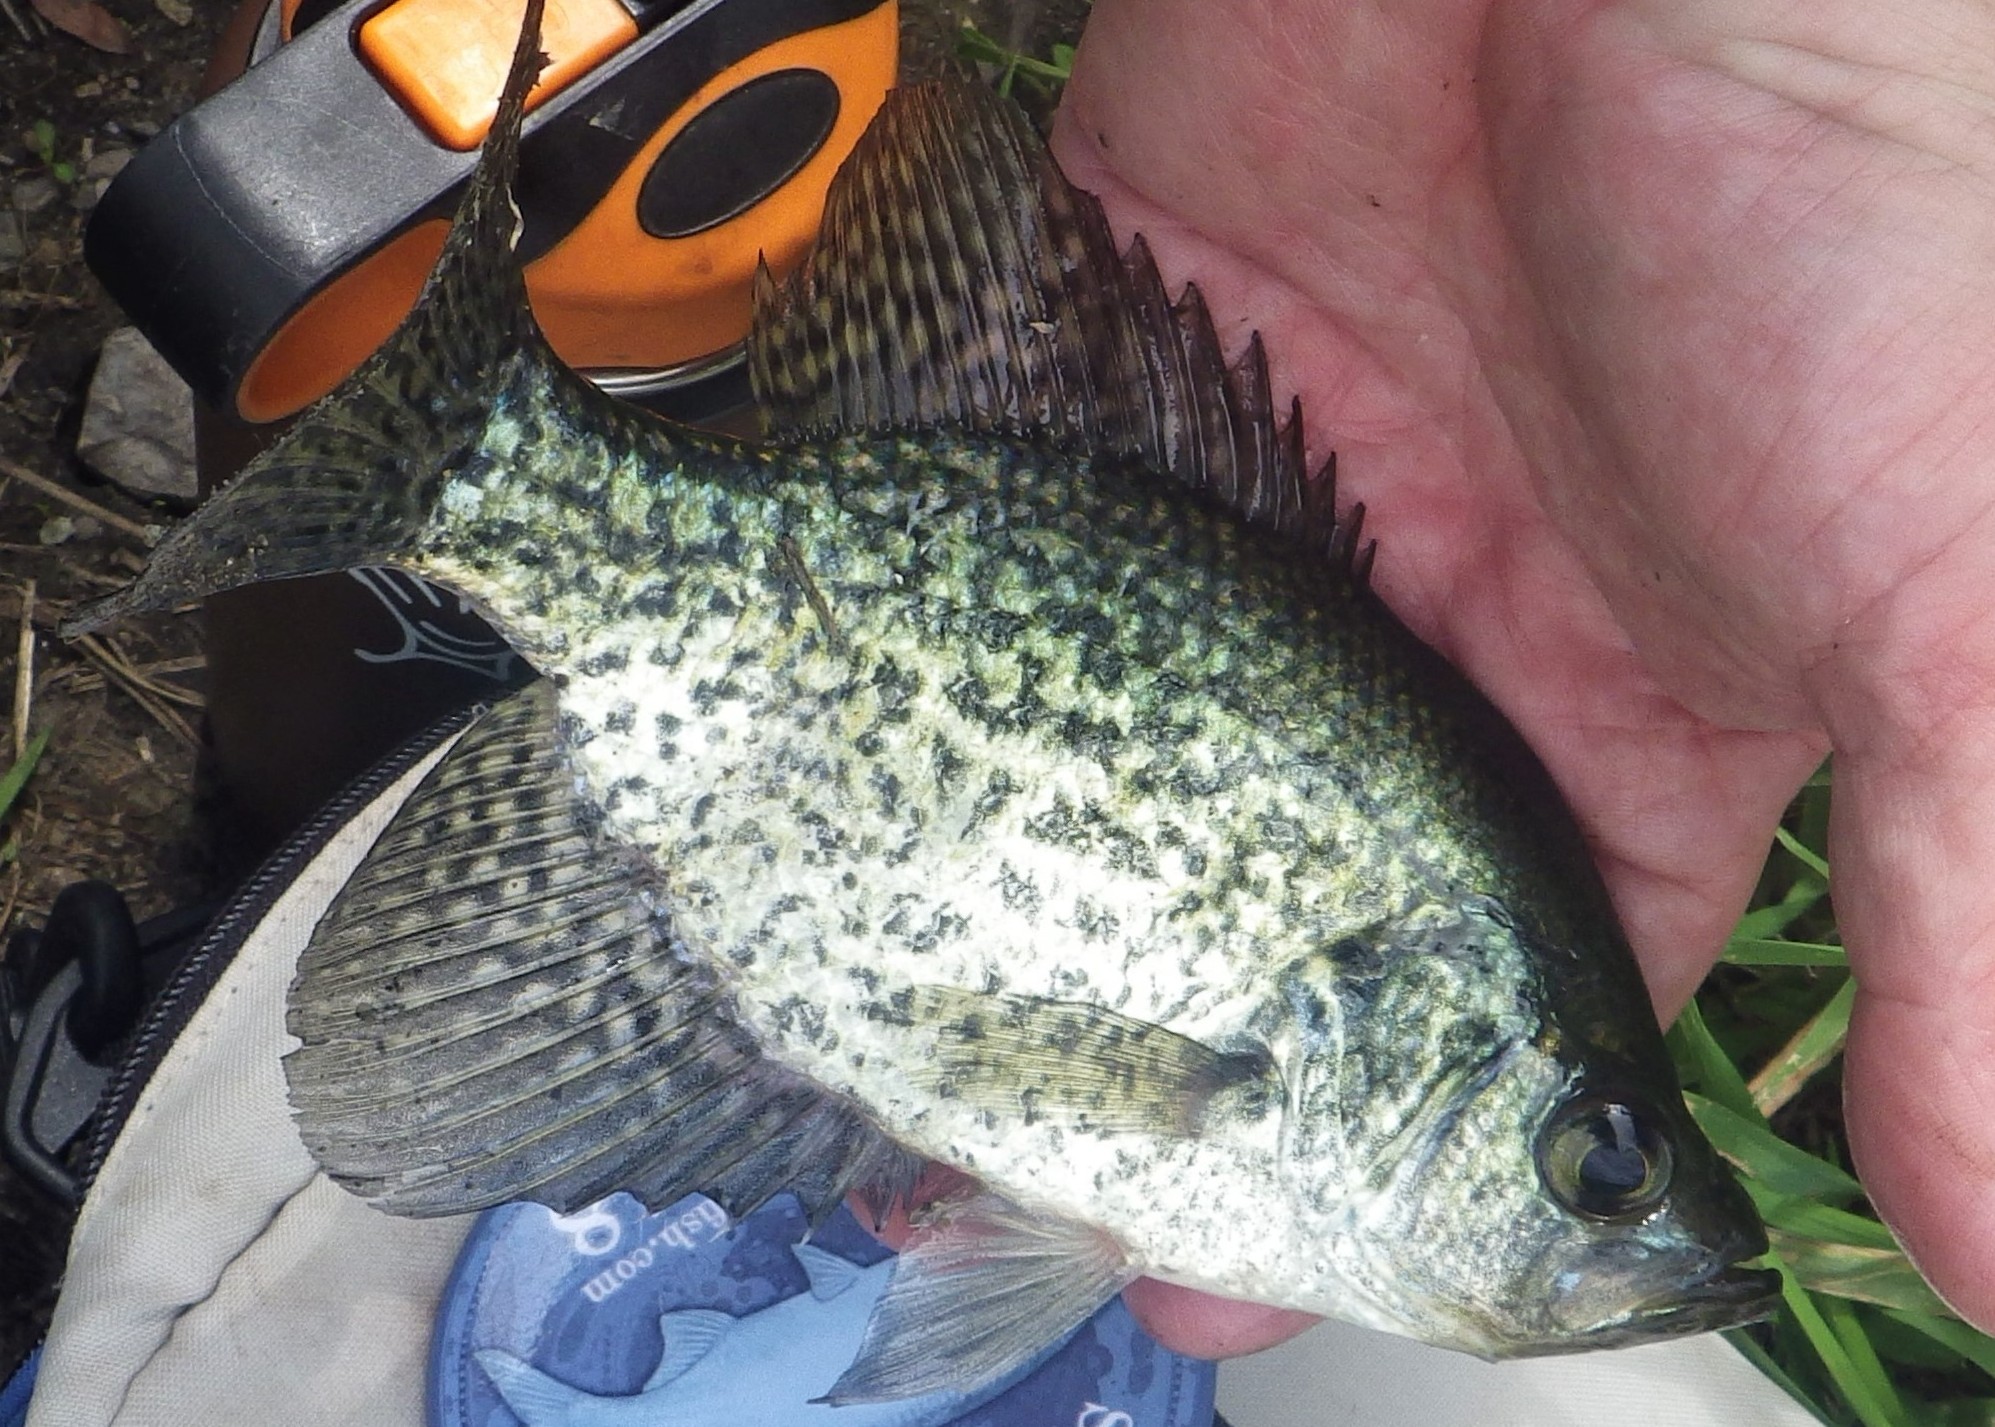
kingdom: Animalia
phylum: Chordata
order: Perciformes
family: Centrarchidae
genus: Pomoxis
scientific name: Pomoxis nigromaculatus
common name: Black crappie
